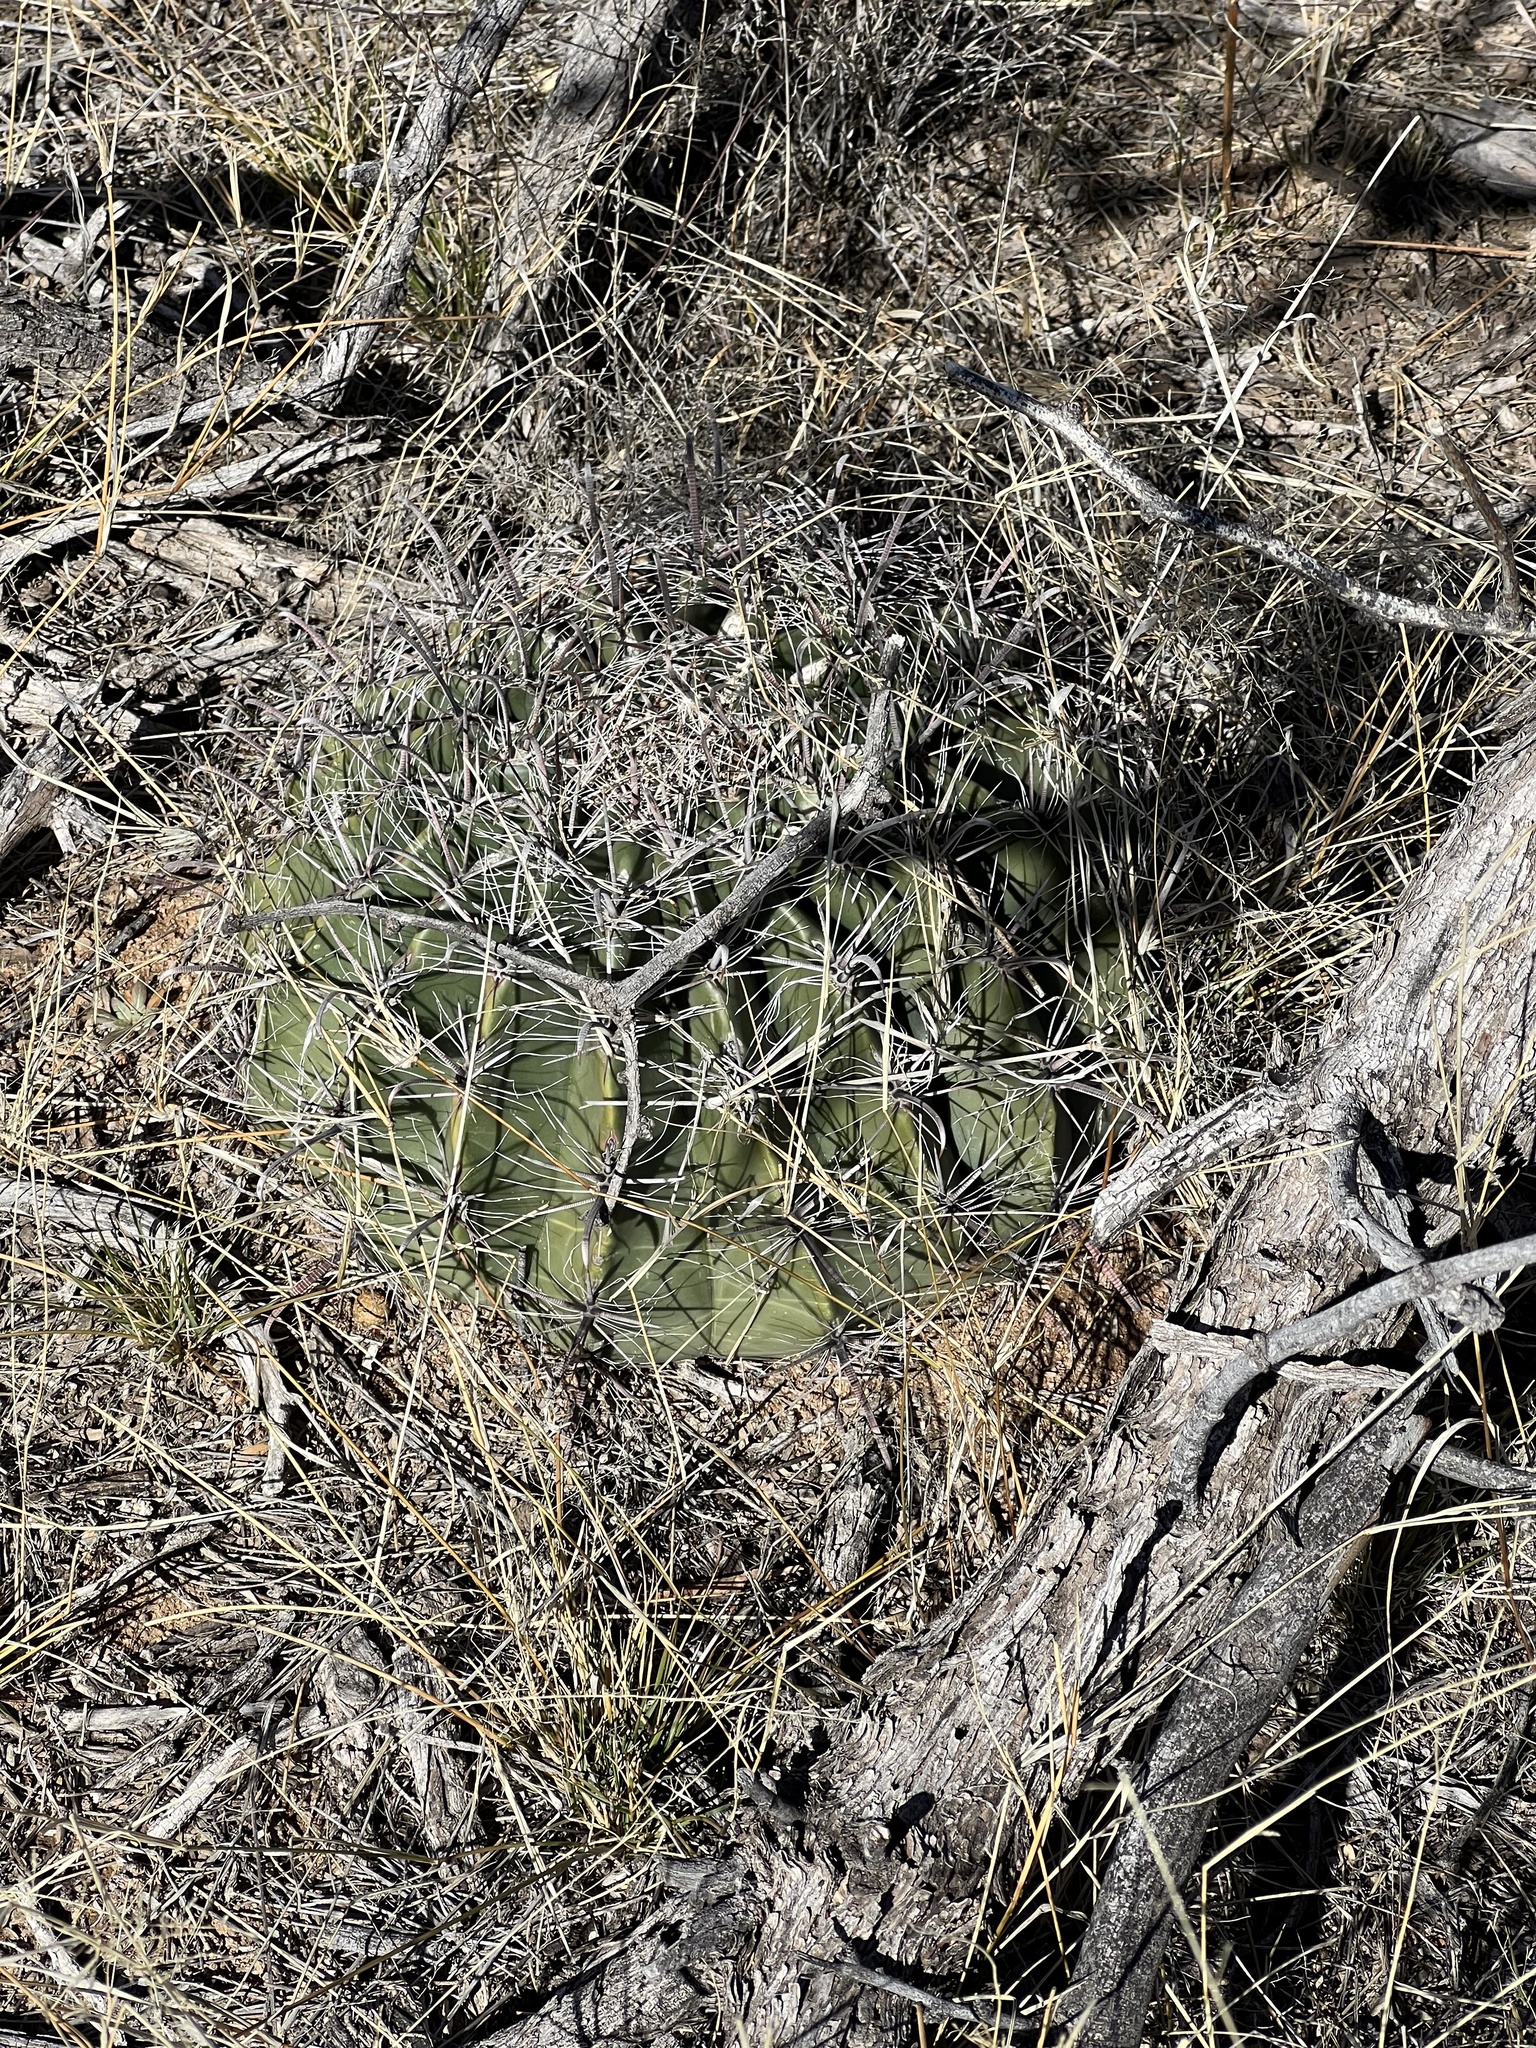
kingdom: Plantae
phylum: Tracheophyta
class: Magnoliopsida
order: Caryophyllales
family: Cactaceae
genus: Ferocactus
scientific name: Ferocactus wislizeni
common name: Candy barrel cactus
